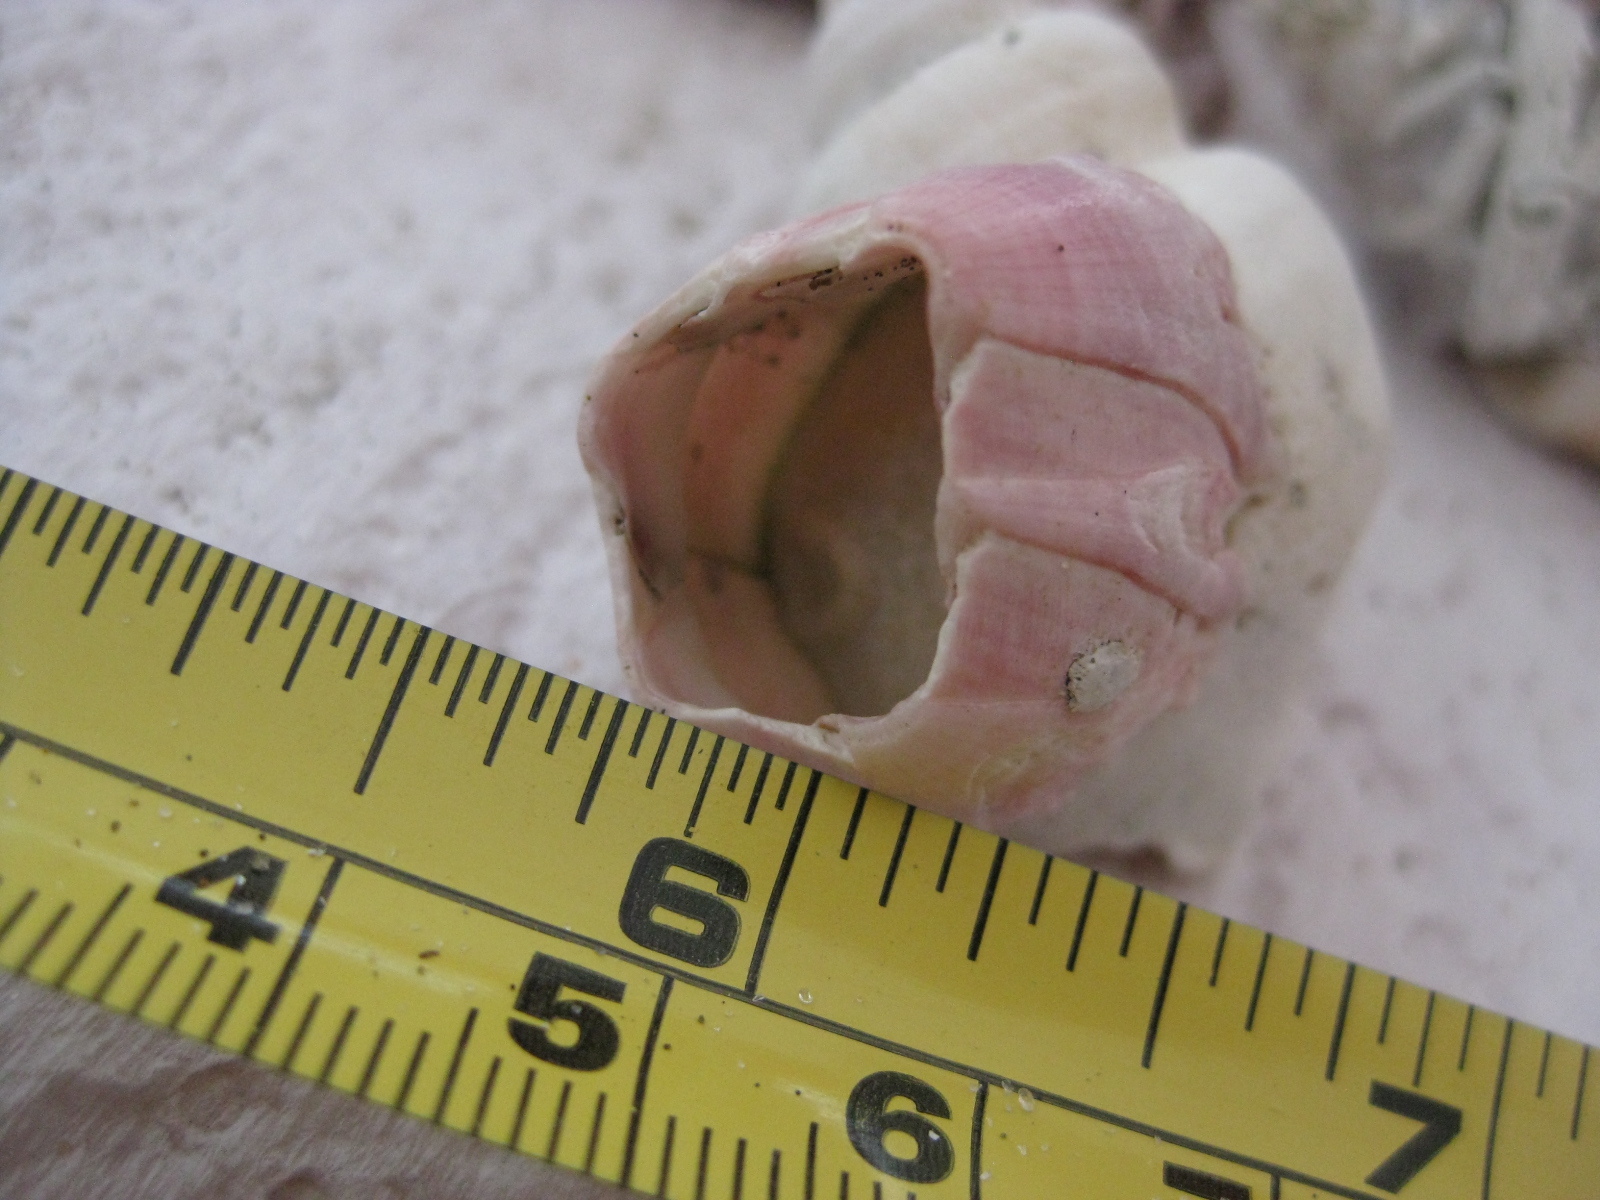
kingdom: Animalia
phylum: Arthropoda
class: Maxillopoda
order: Sessilia
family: Balanidae
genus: Notomegabalanus
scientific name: Notomegabalanus decorus
